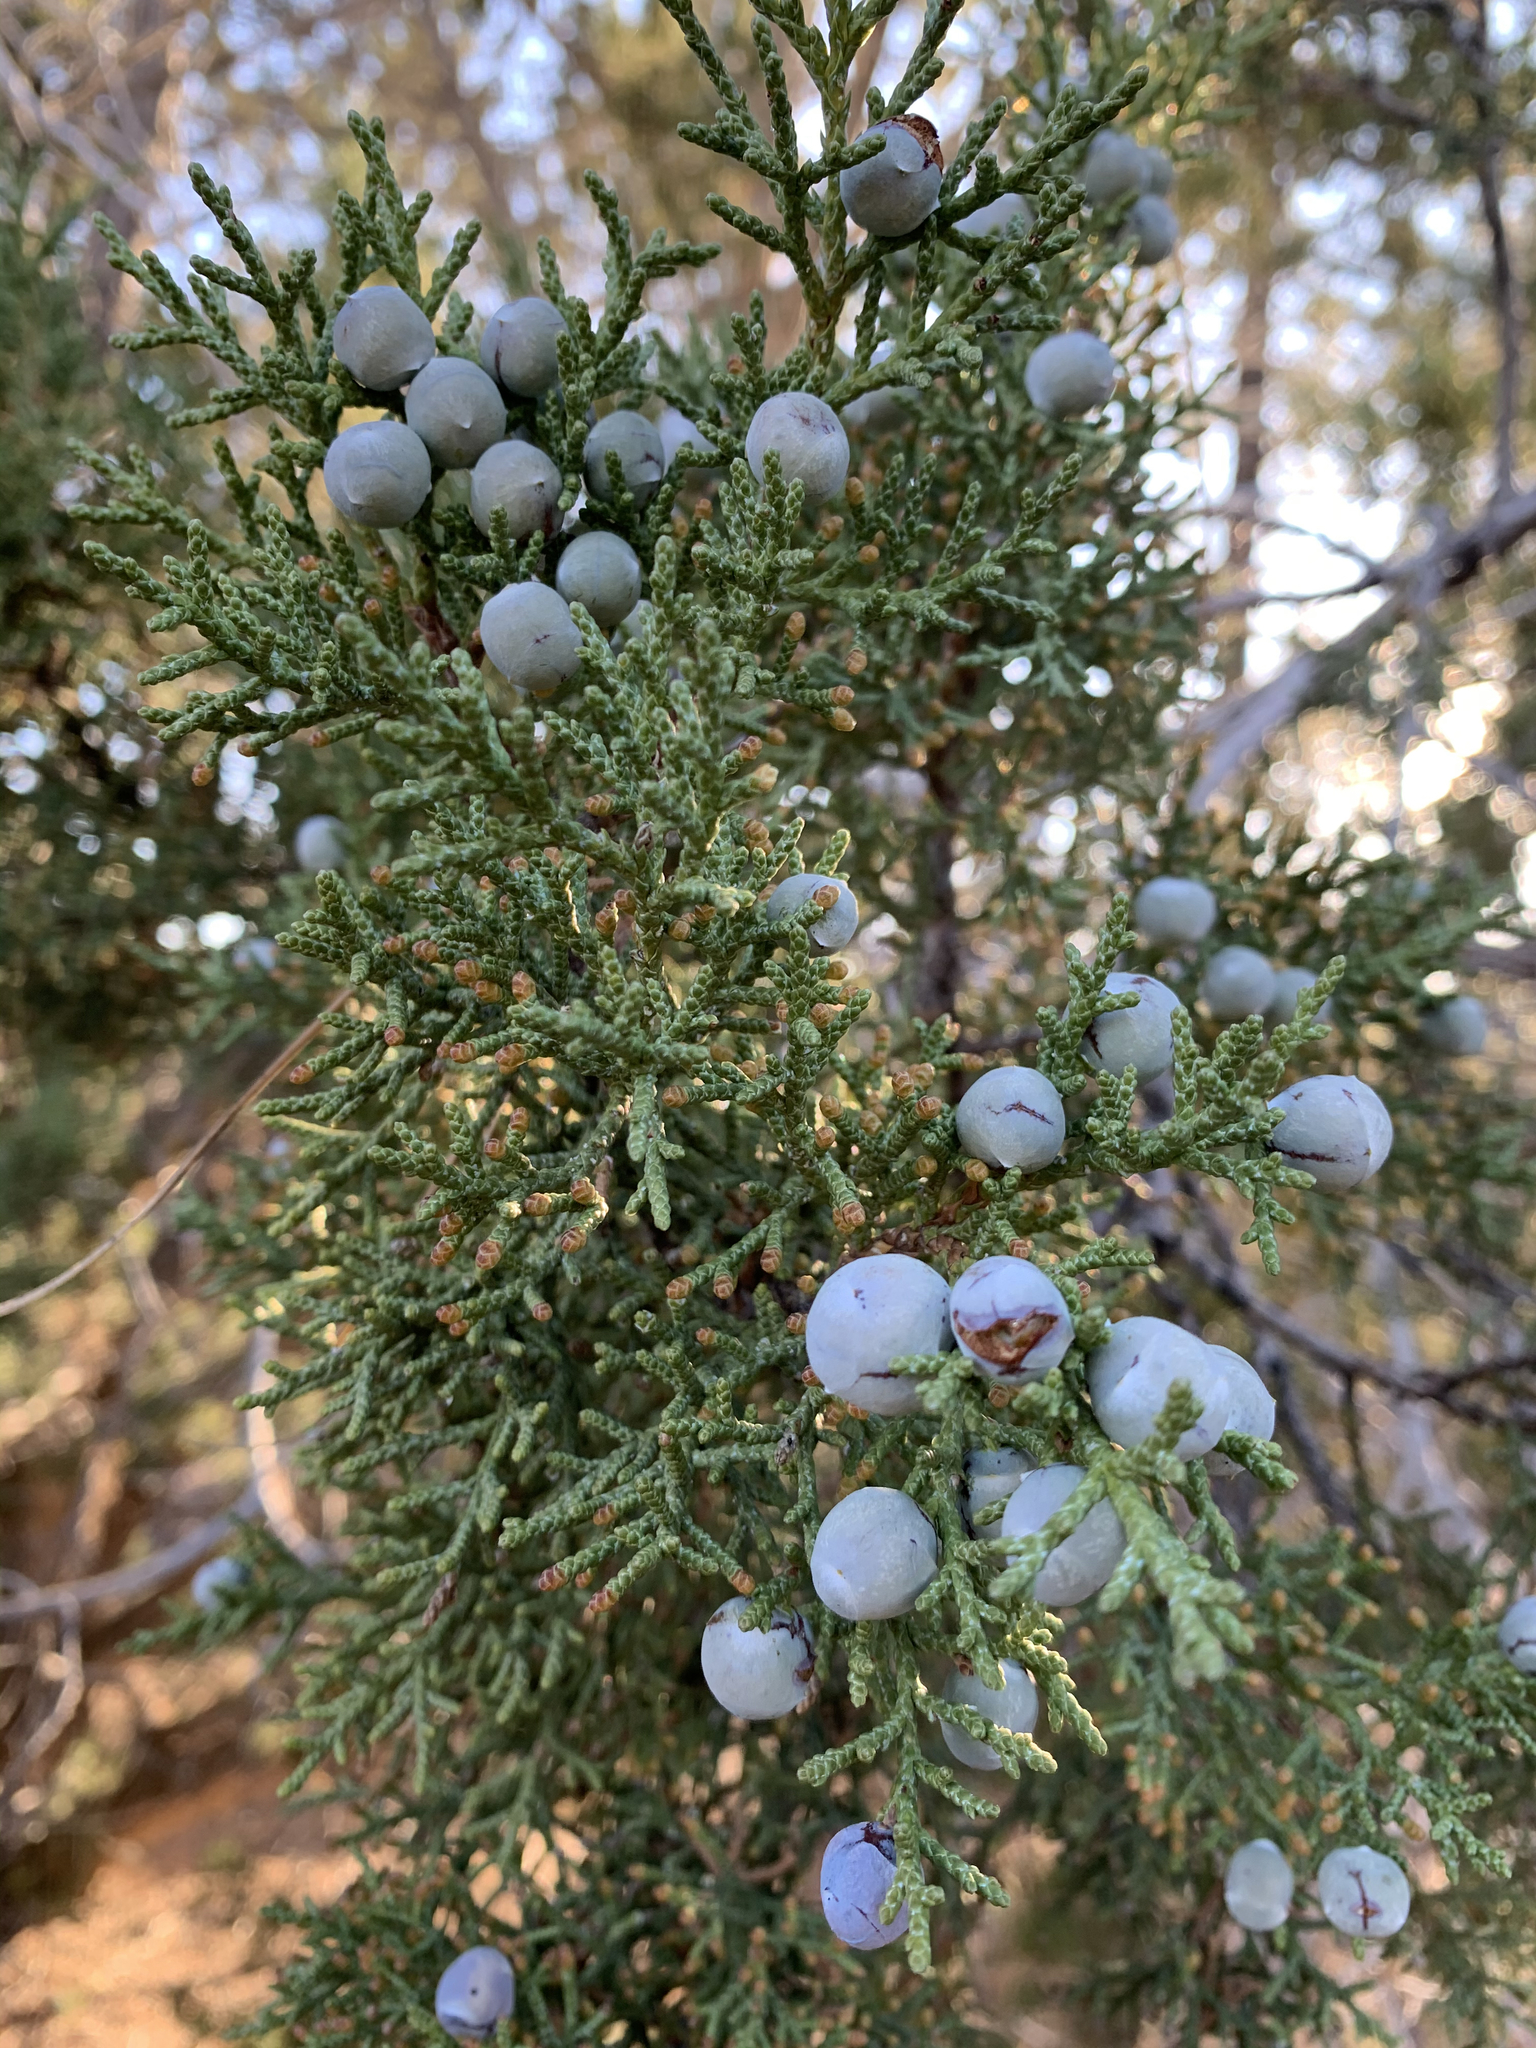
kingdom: Plantae
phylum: Tracheophyta
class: Pinopsida
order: Pinales
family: Cupressaceae
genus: Juniperus
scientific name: Juniperus osteosperma
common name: Utah juniper
